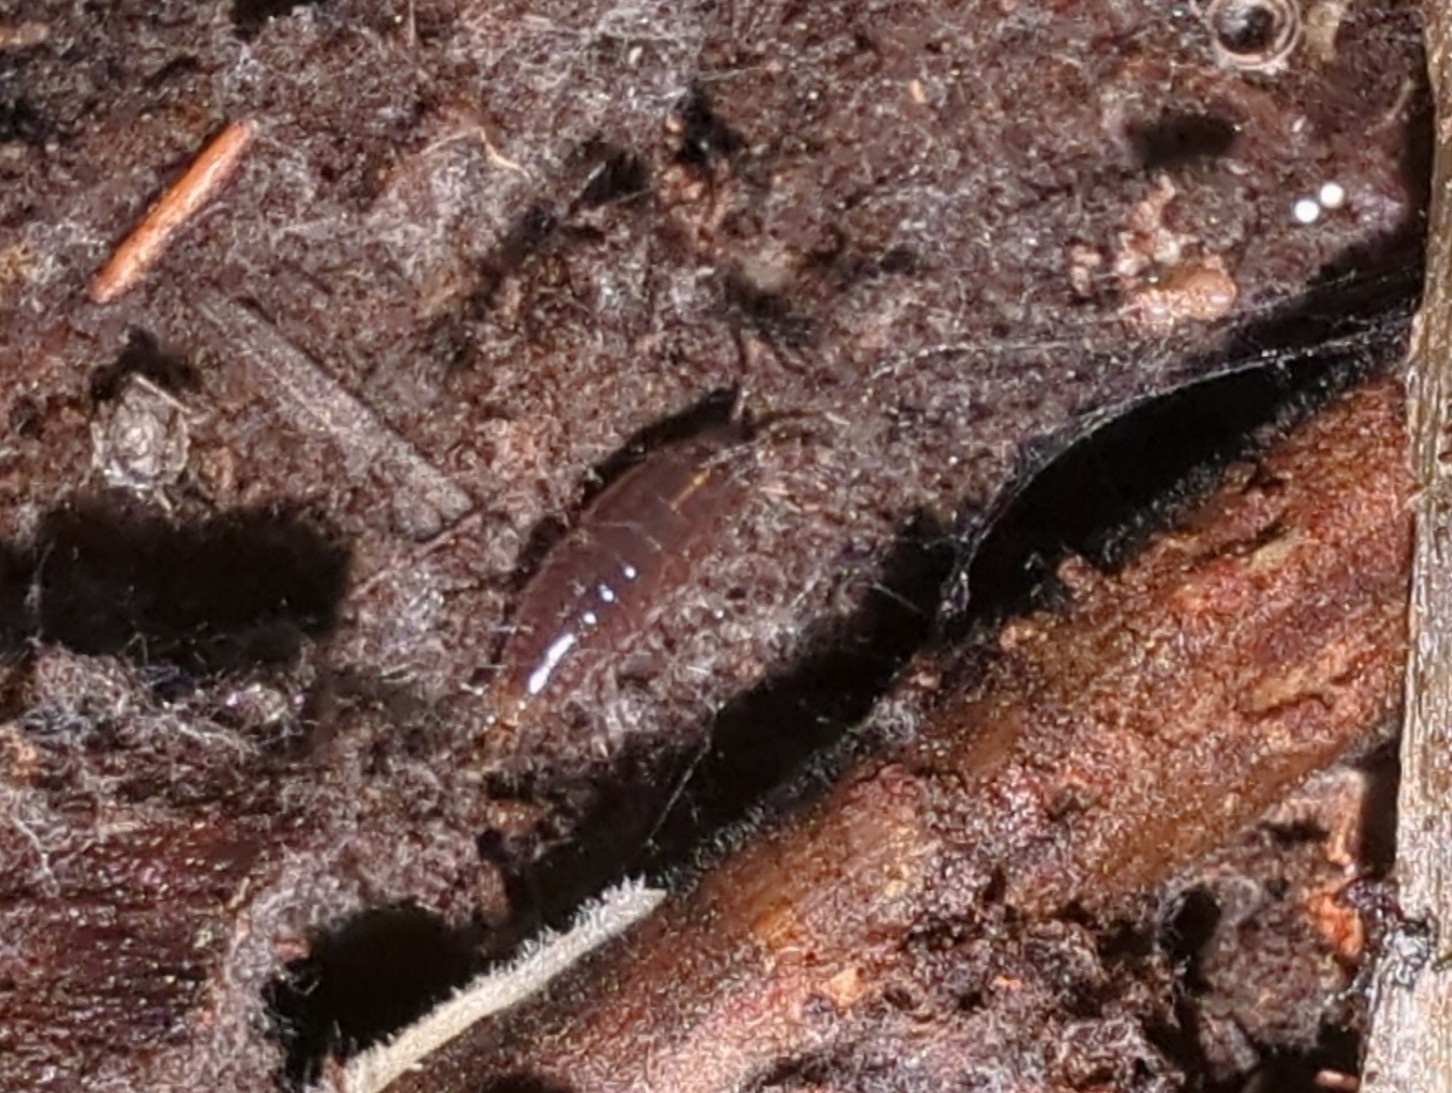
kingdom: Animalia
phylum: Arthropoda
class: Malacostraca
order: Isopoda
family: Ligiidae
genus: Ligidium
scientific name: Ligidium gracile
